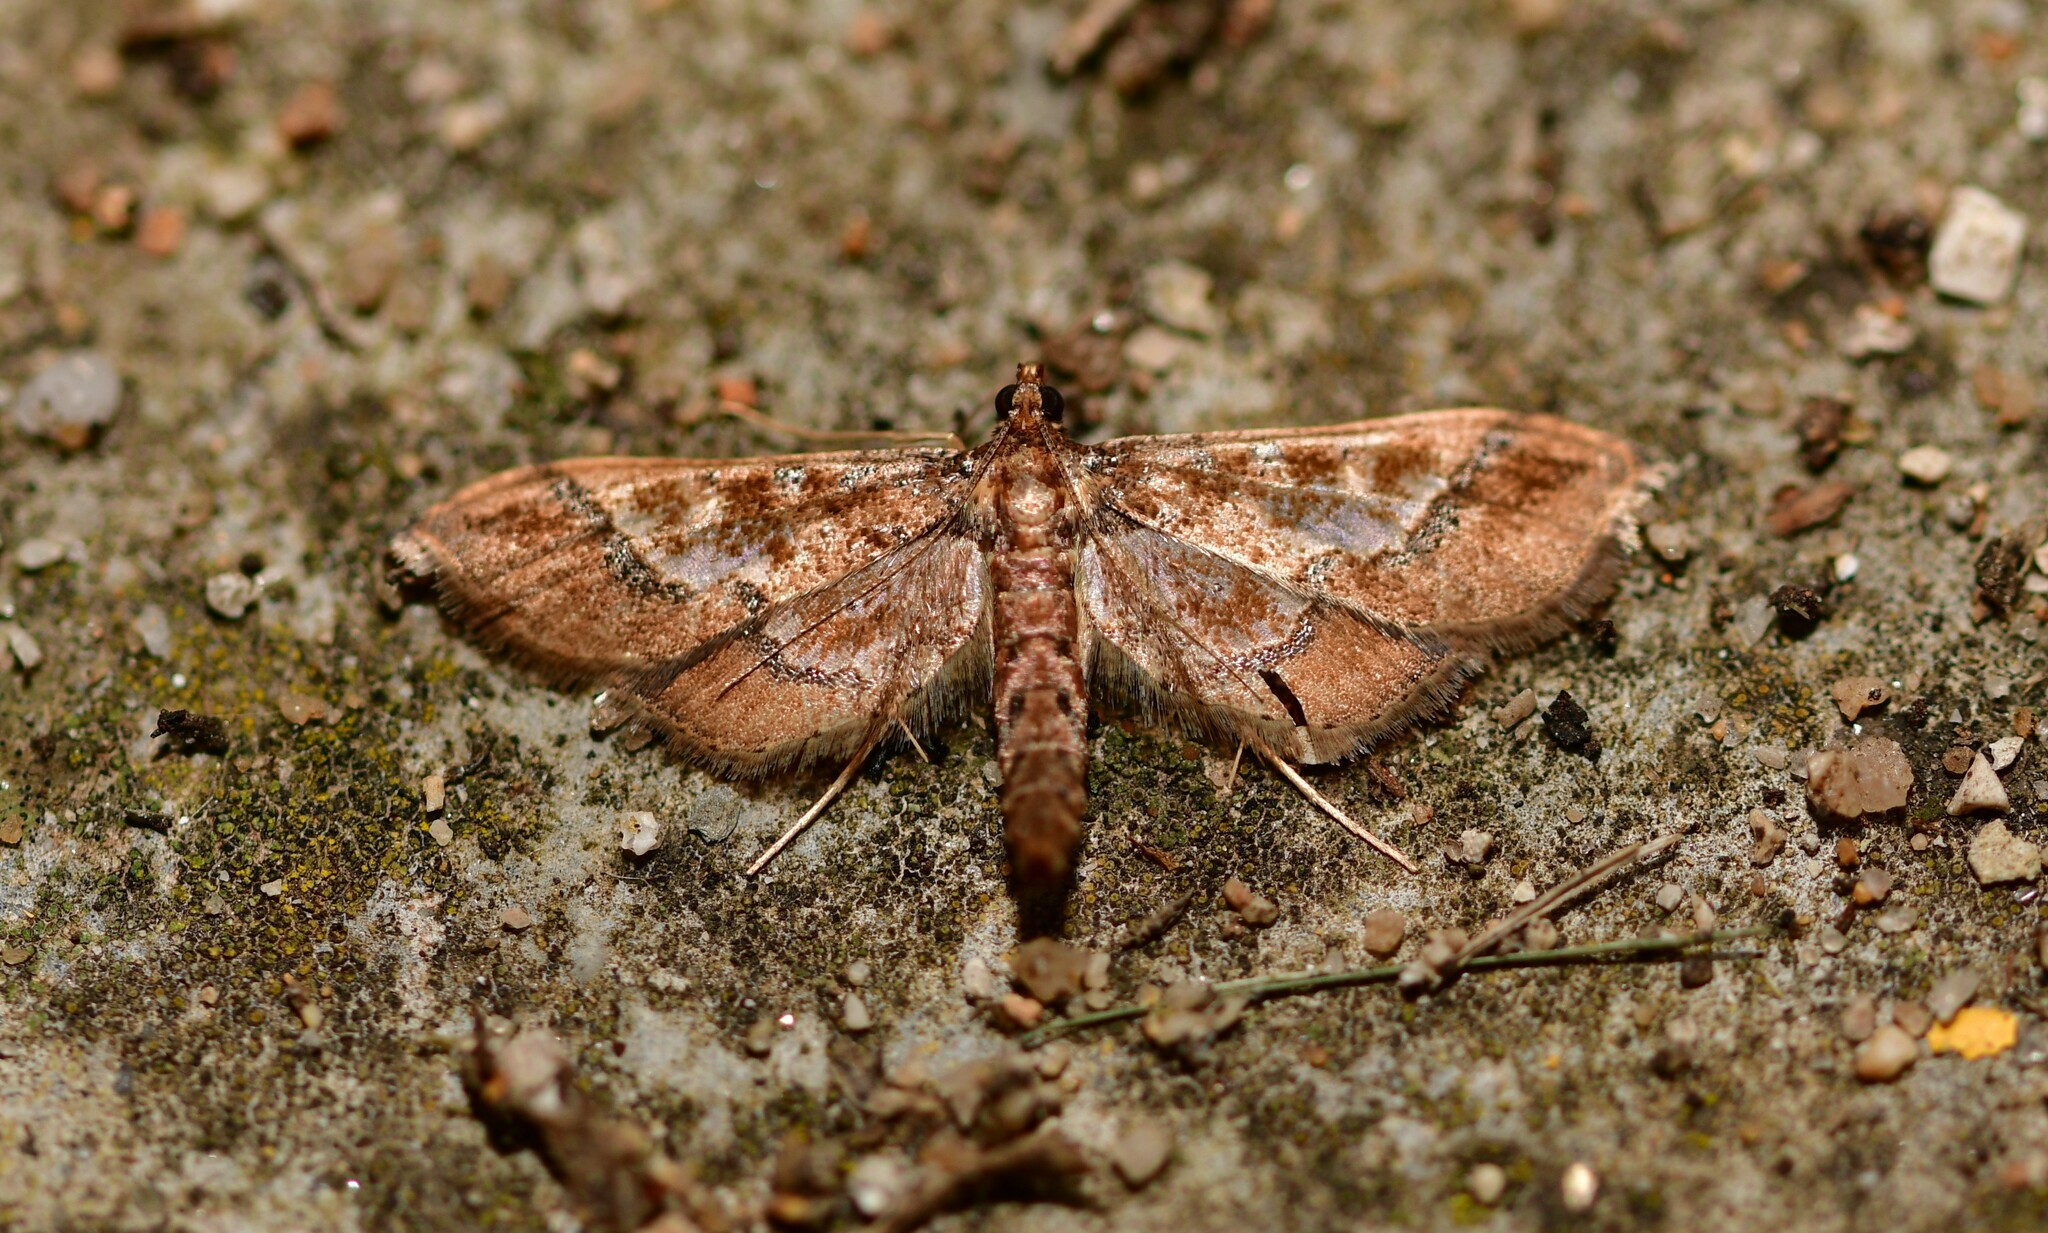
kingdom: Animalia
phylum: Arthropoda
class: Insecta
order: Lepidoptera
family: Crambidae
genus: Hydriris
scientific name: Hydriris ornatalis
